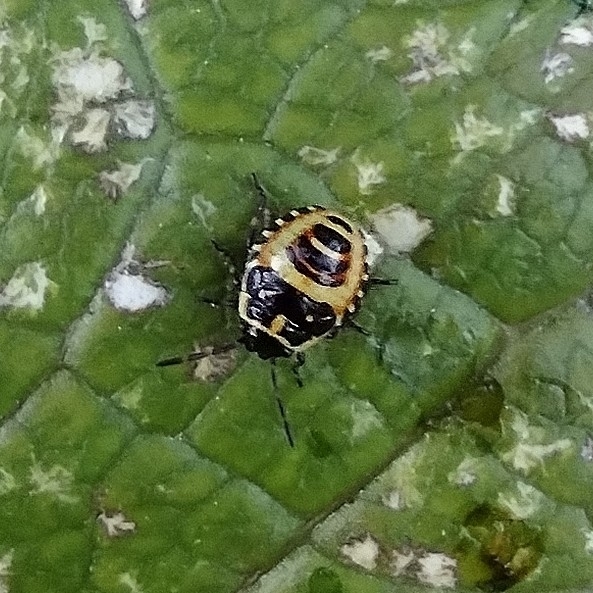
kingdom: Animalia
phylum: Arthropoda
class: Insecta
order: Hemiptera
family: Pentatomidae
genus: Eurydema
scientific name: Eurydema oleracea
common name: Cabbage bug
